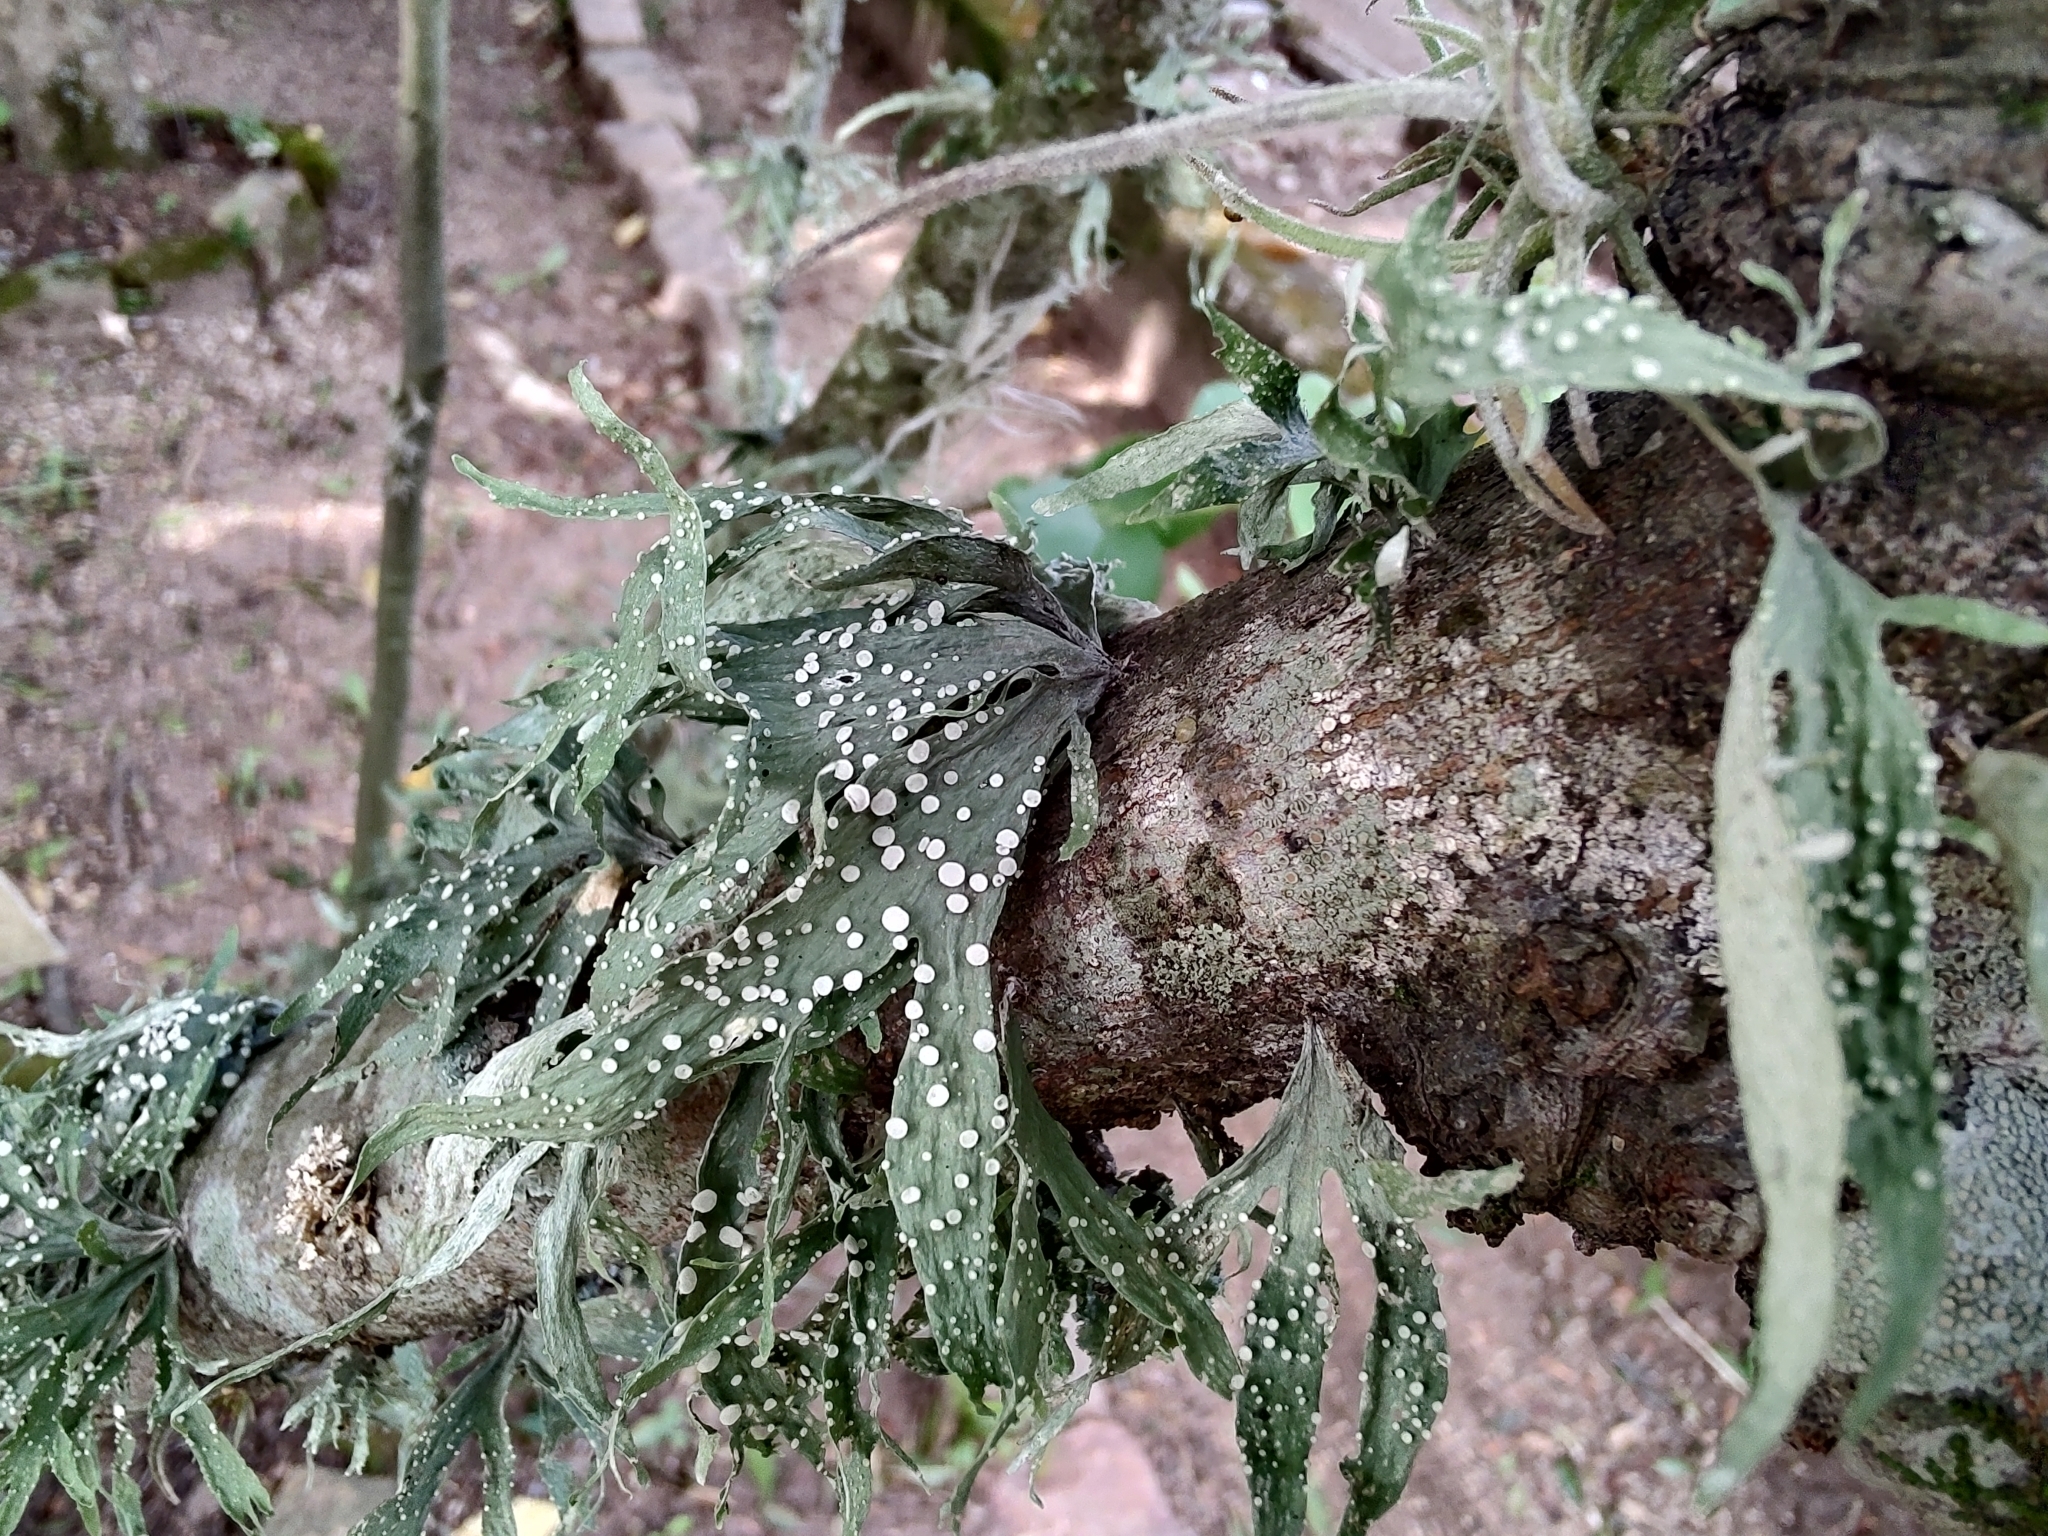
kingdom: Fungi
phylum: Ascomycota
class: Lecanoromycetes
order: Lecanorales
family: Ramalinaceae
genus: Ramalina
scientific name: Ramalina celastri
